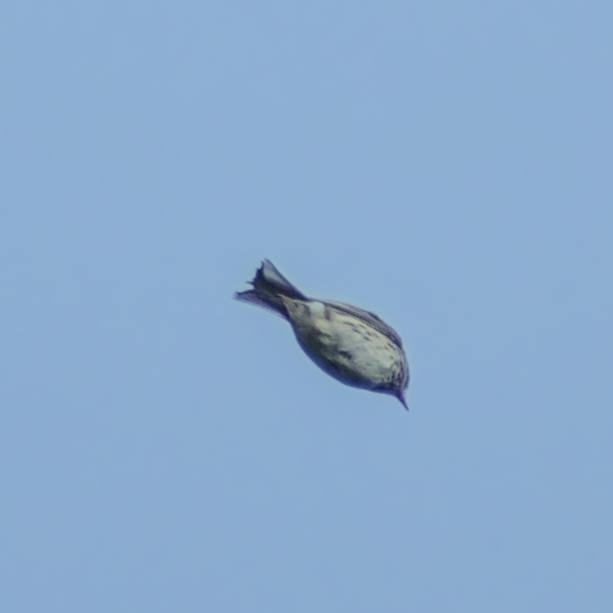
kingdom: Animalia
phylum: Chordata
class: Aves
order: Passeriformes
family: Motacillidae
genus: Anthus
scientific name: Anthus pratensis
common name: Meadow pipit
